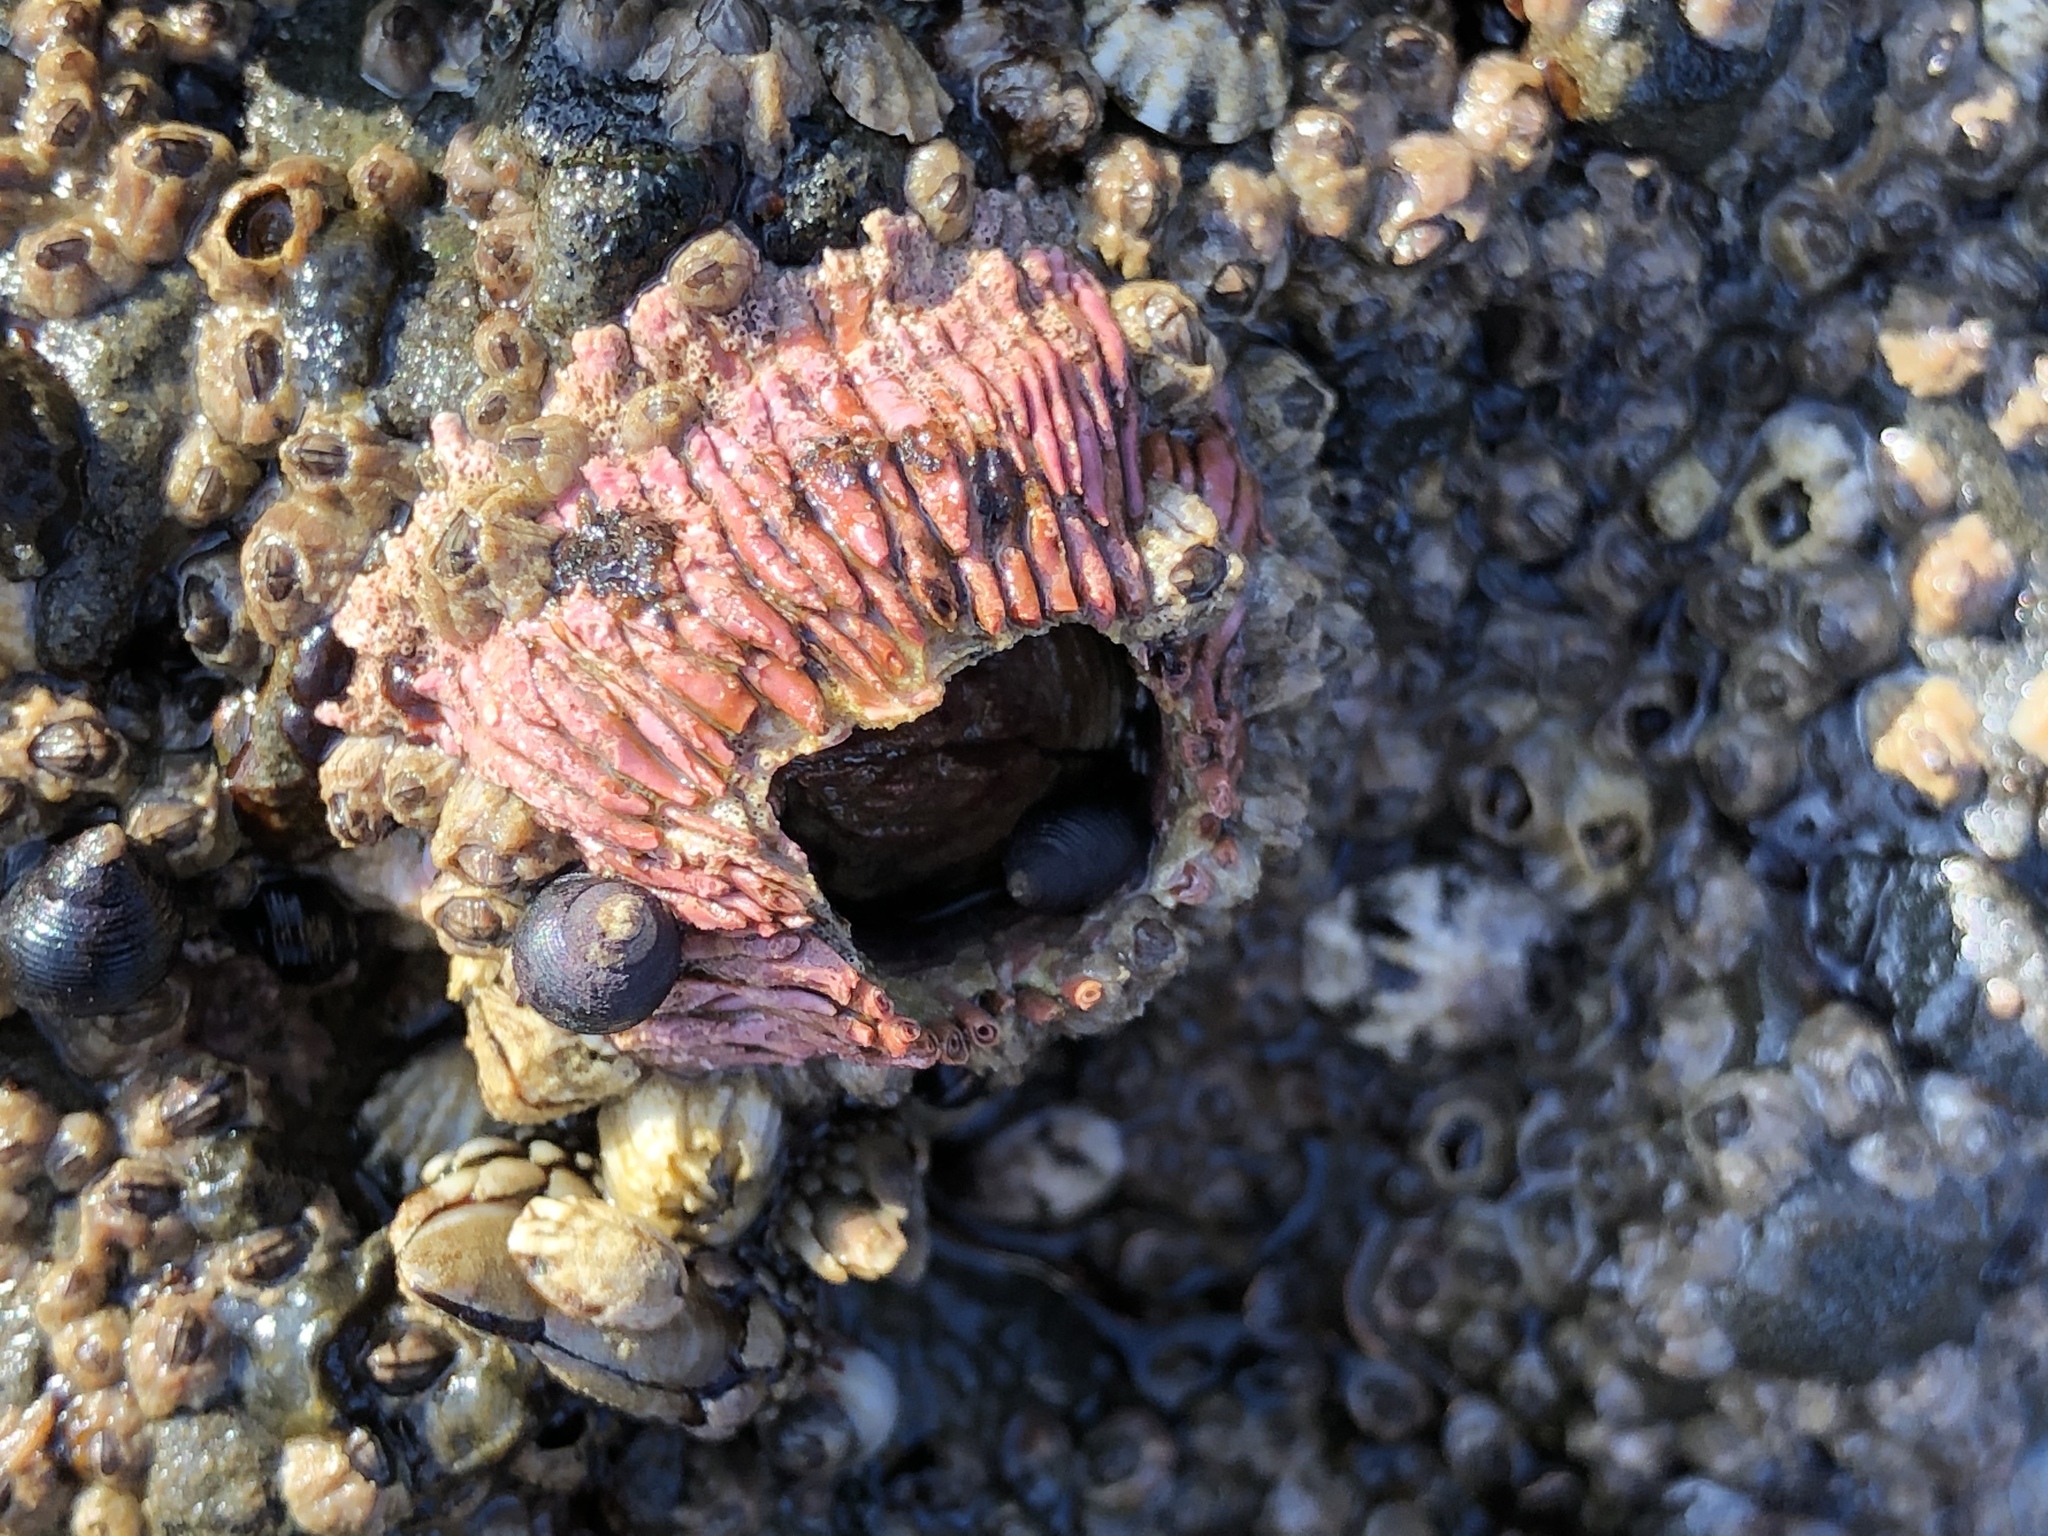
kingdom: Animalia
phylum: Arthropoda
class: Maxillopoda
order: Sessilia
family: Tetraclitidae
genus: Tetraclita
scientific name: Tetraclita rubescens
